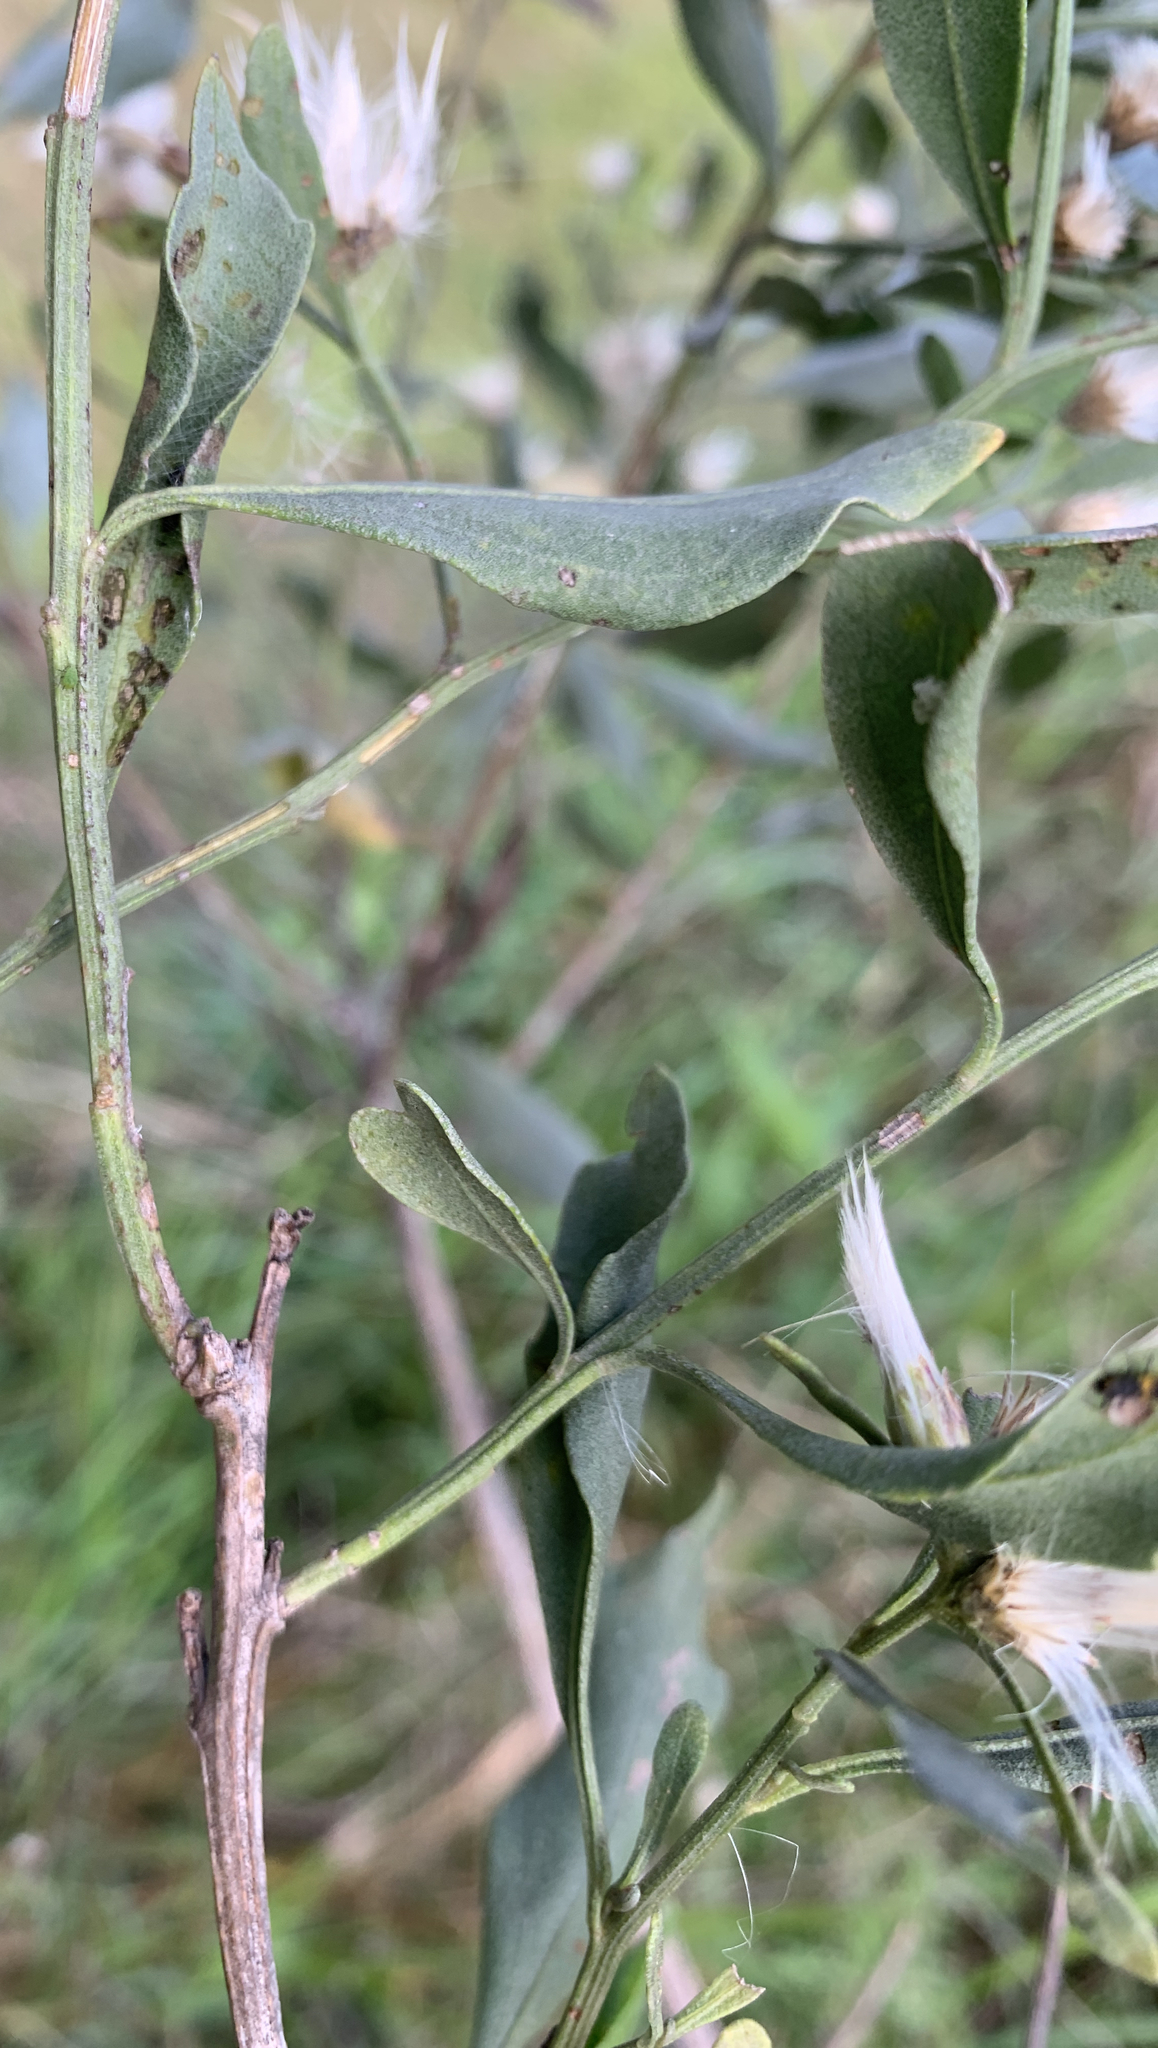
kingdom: Plantae
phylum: Tracheophyta
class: Magnoliopsida
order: Asterales
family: Asteraceae
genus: Baccharis
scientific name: Baccharis halimifolia
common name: Eastern baccharis
